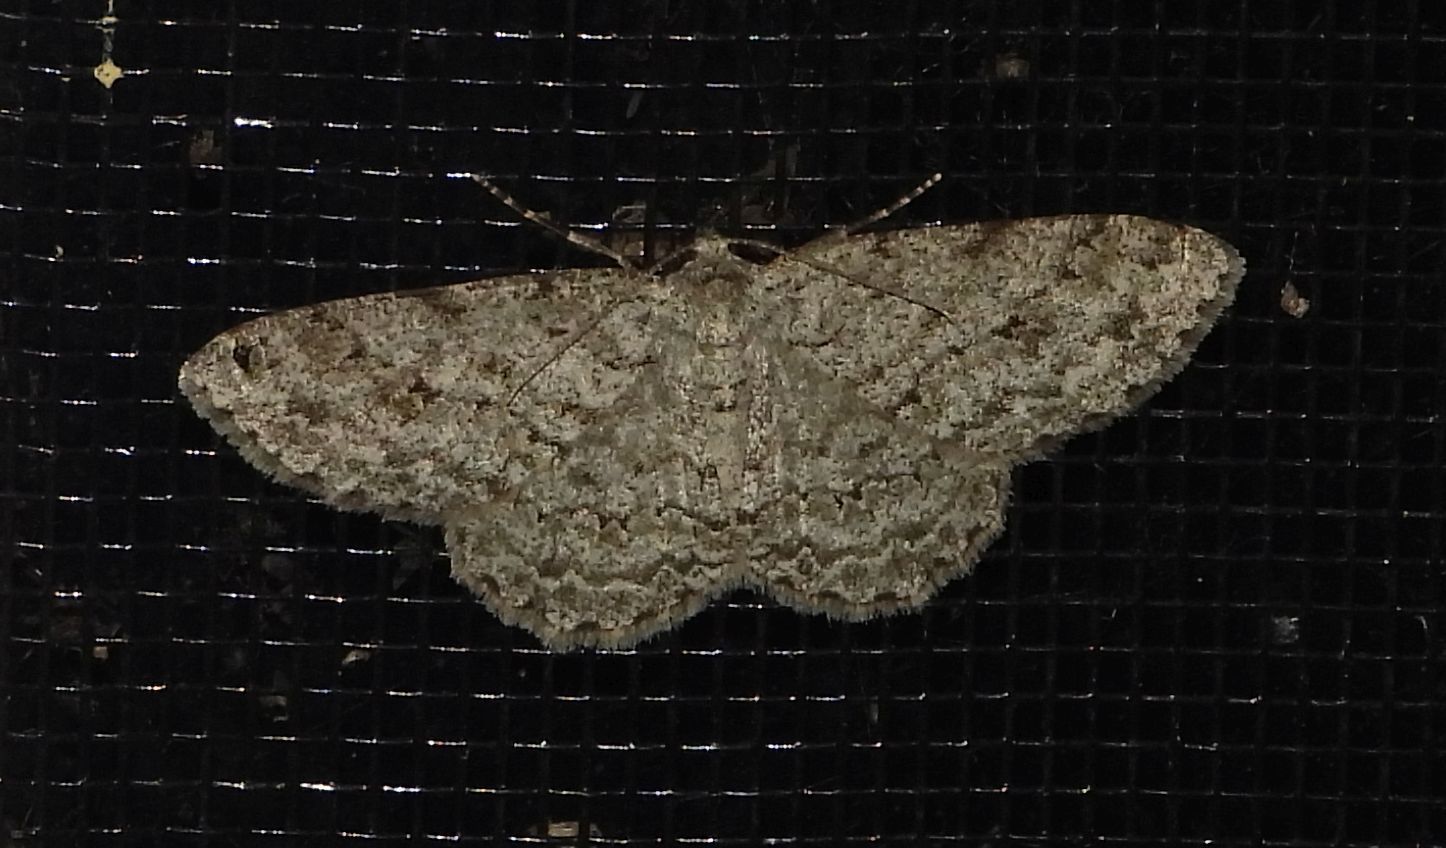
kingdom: Animalia
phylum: Arthropoda
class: Insecta
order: Lepidoptera
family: Geometridae
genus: Ectropis
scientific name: Ectropis crepuscularia
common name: Engrailed
